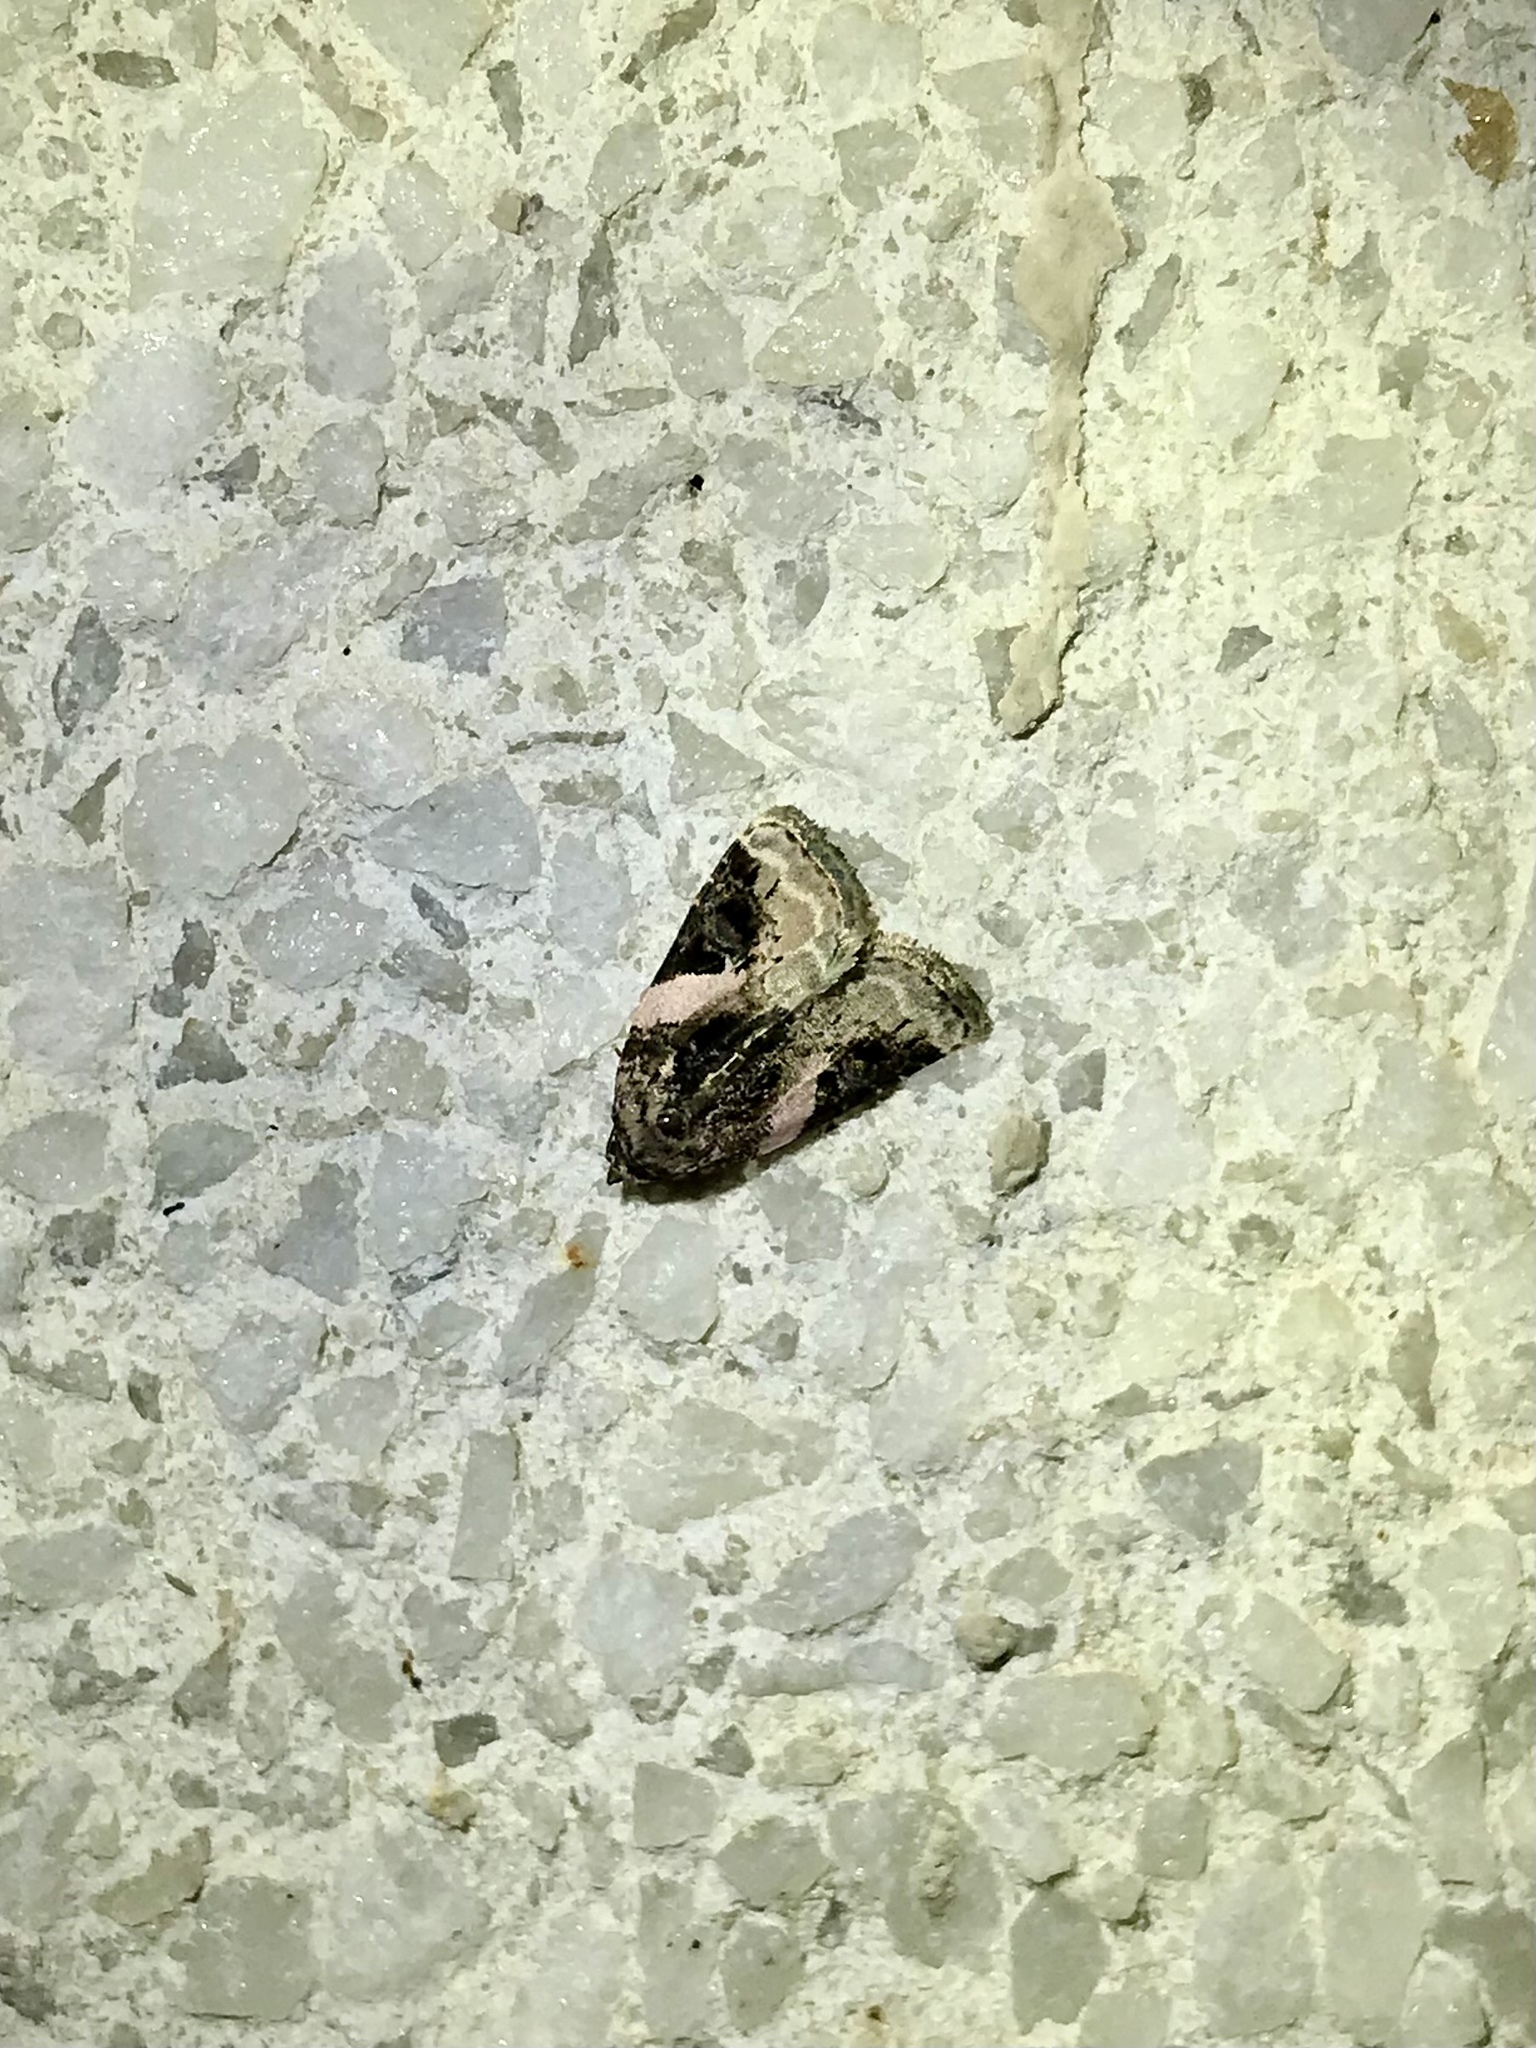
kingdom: Animalia
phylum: Arthropoda
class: Insecta
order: Lepidoptera
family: Noctuidae
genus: Pseudeustrotia
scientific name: Pseudeustrotia carneola
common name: Pink-barred lithacodia moth
